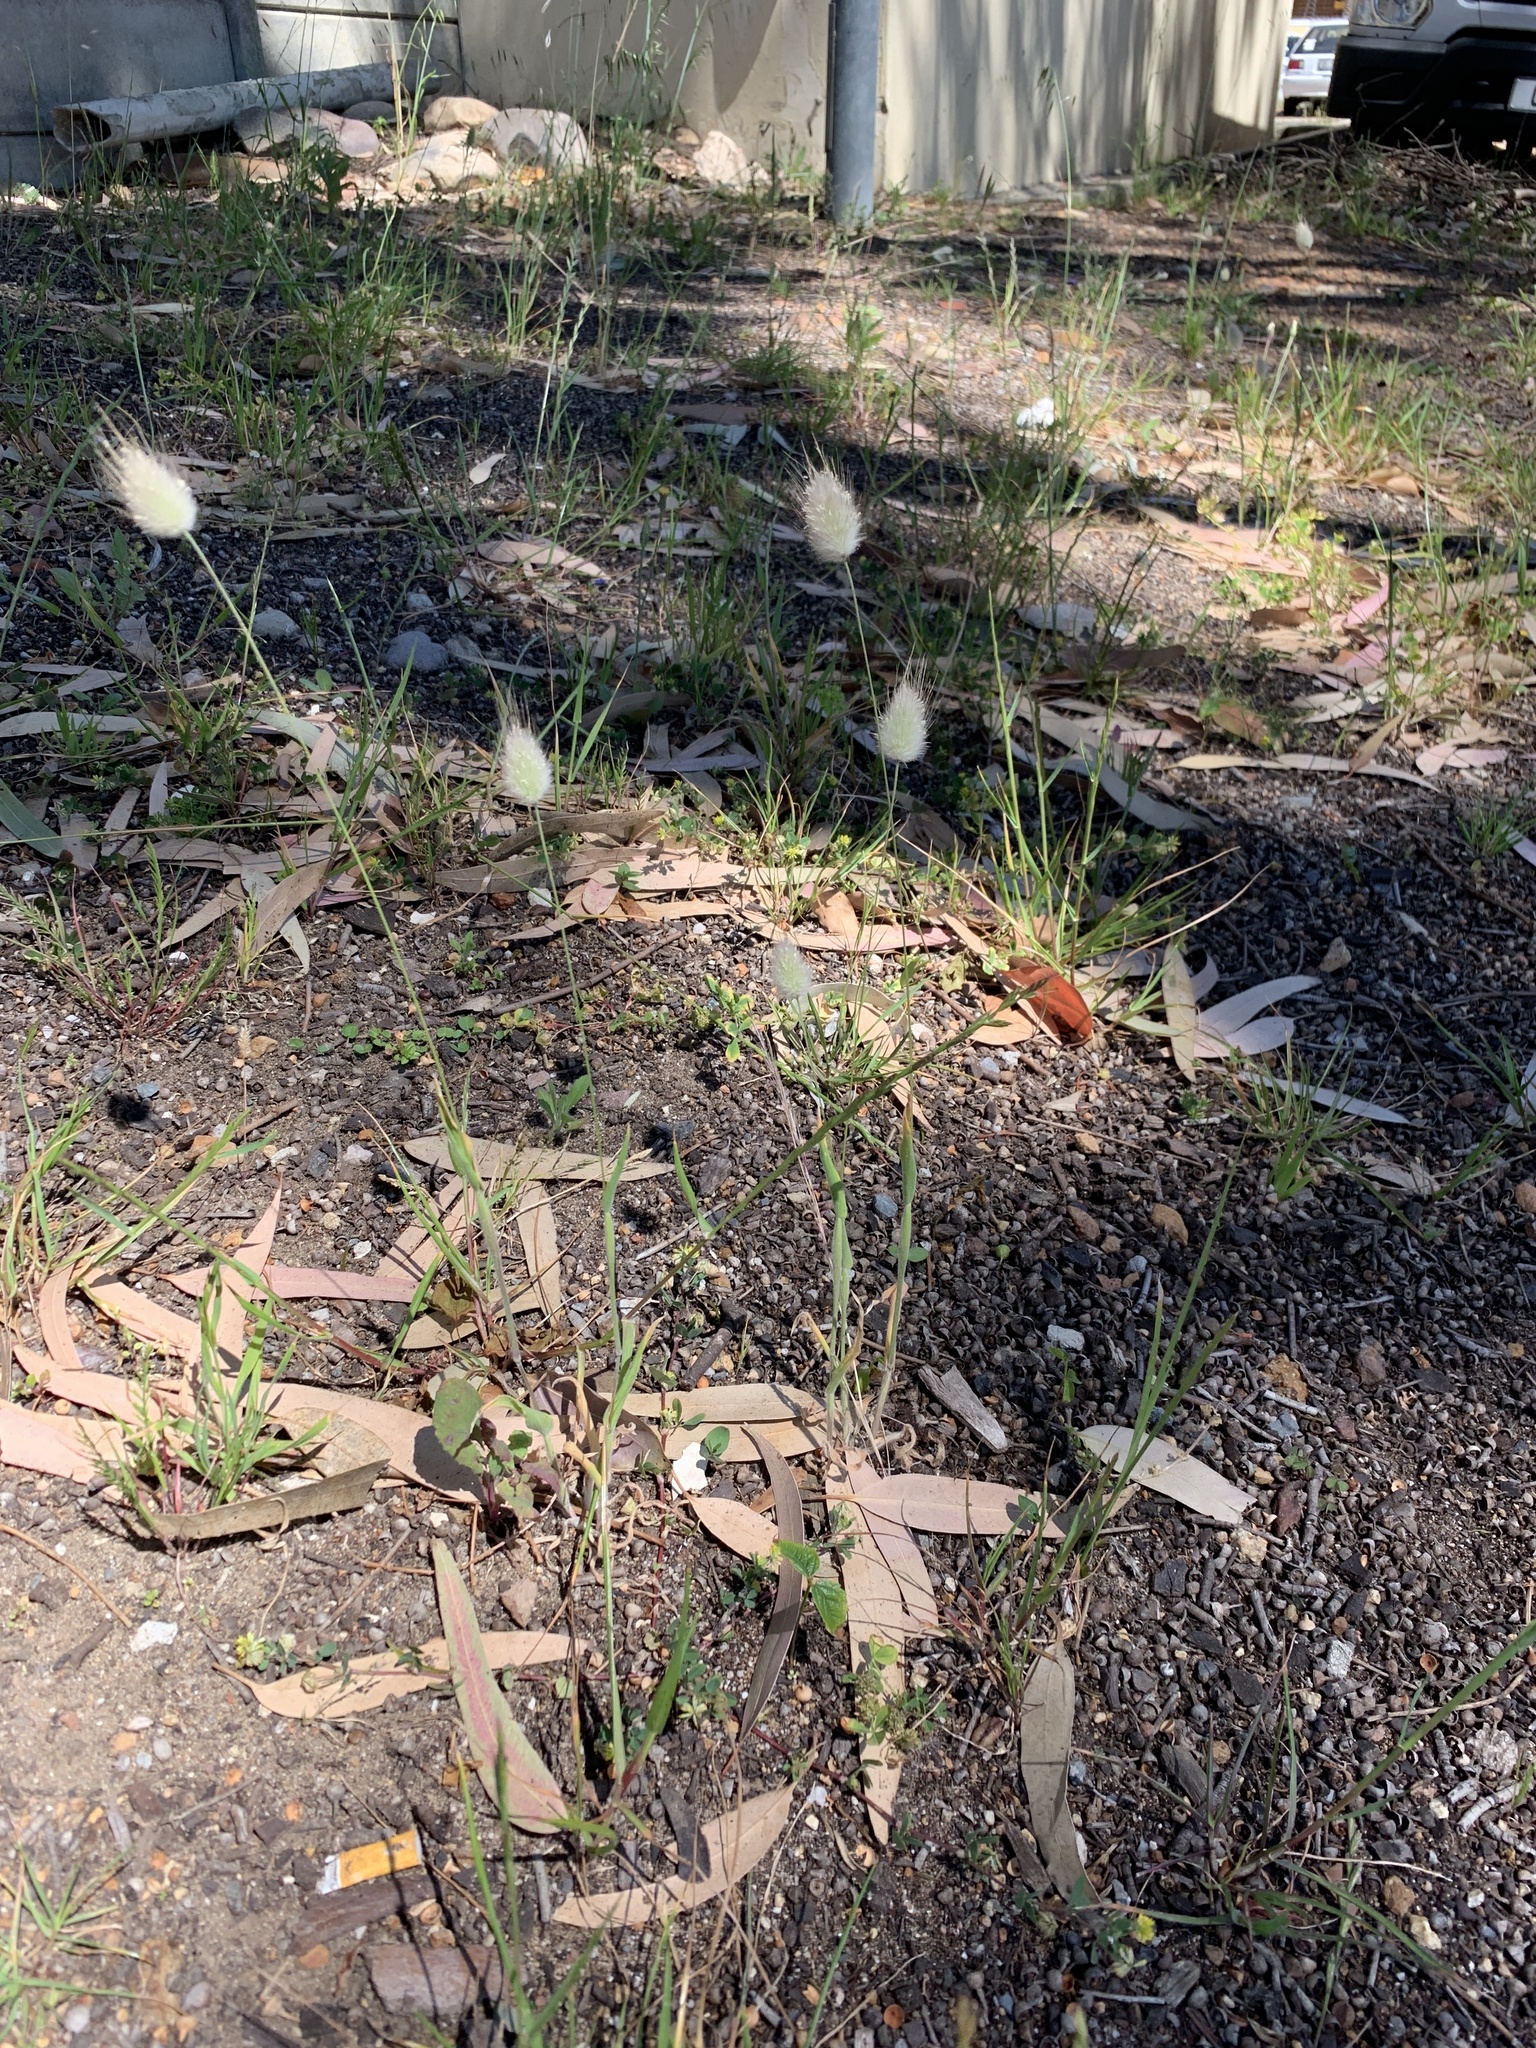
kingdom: Plantae
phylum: Tracheophyta
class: Liliopsida
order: Poales
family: Poaceae
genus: Lagurus
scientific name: Lagurus ovatus
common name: Hare's-tail
